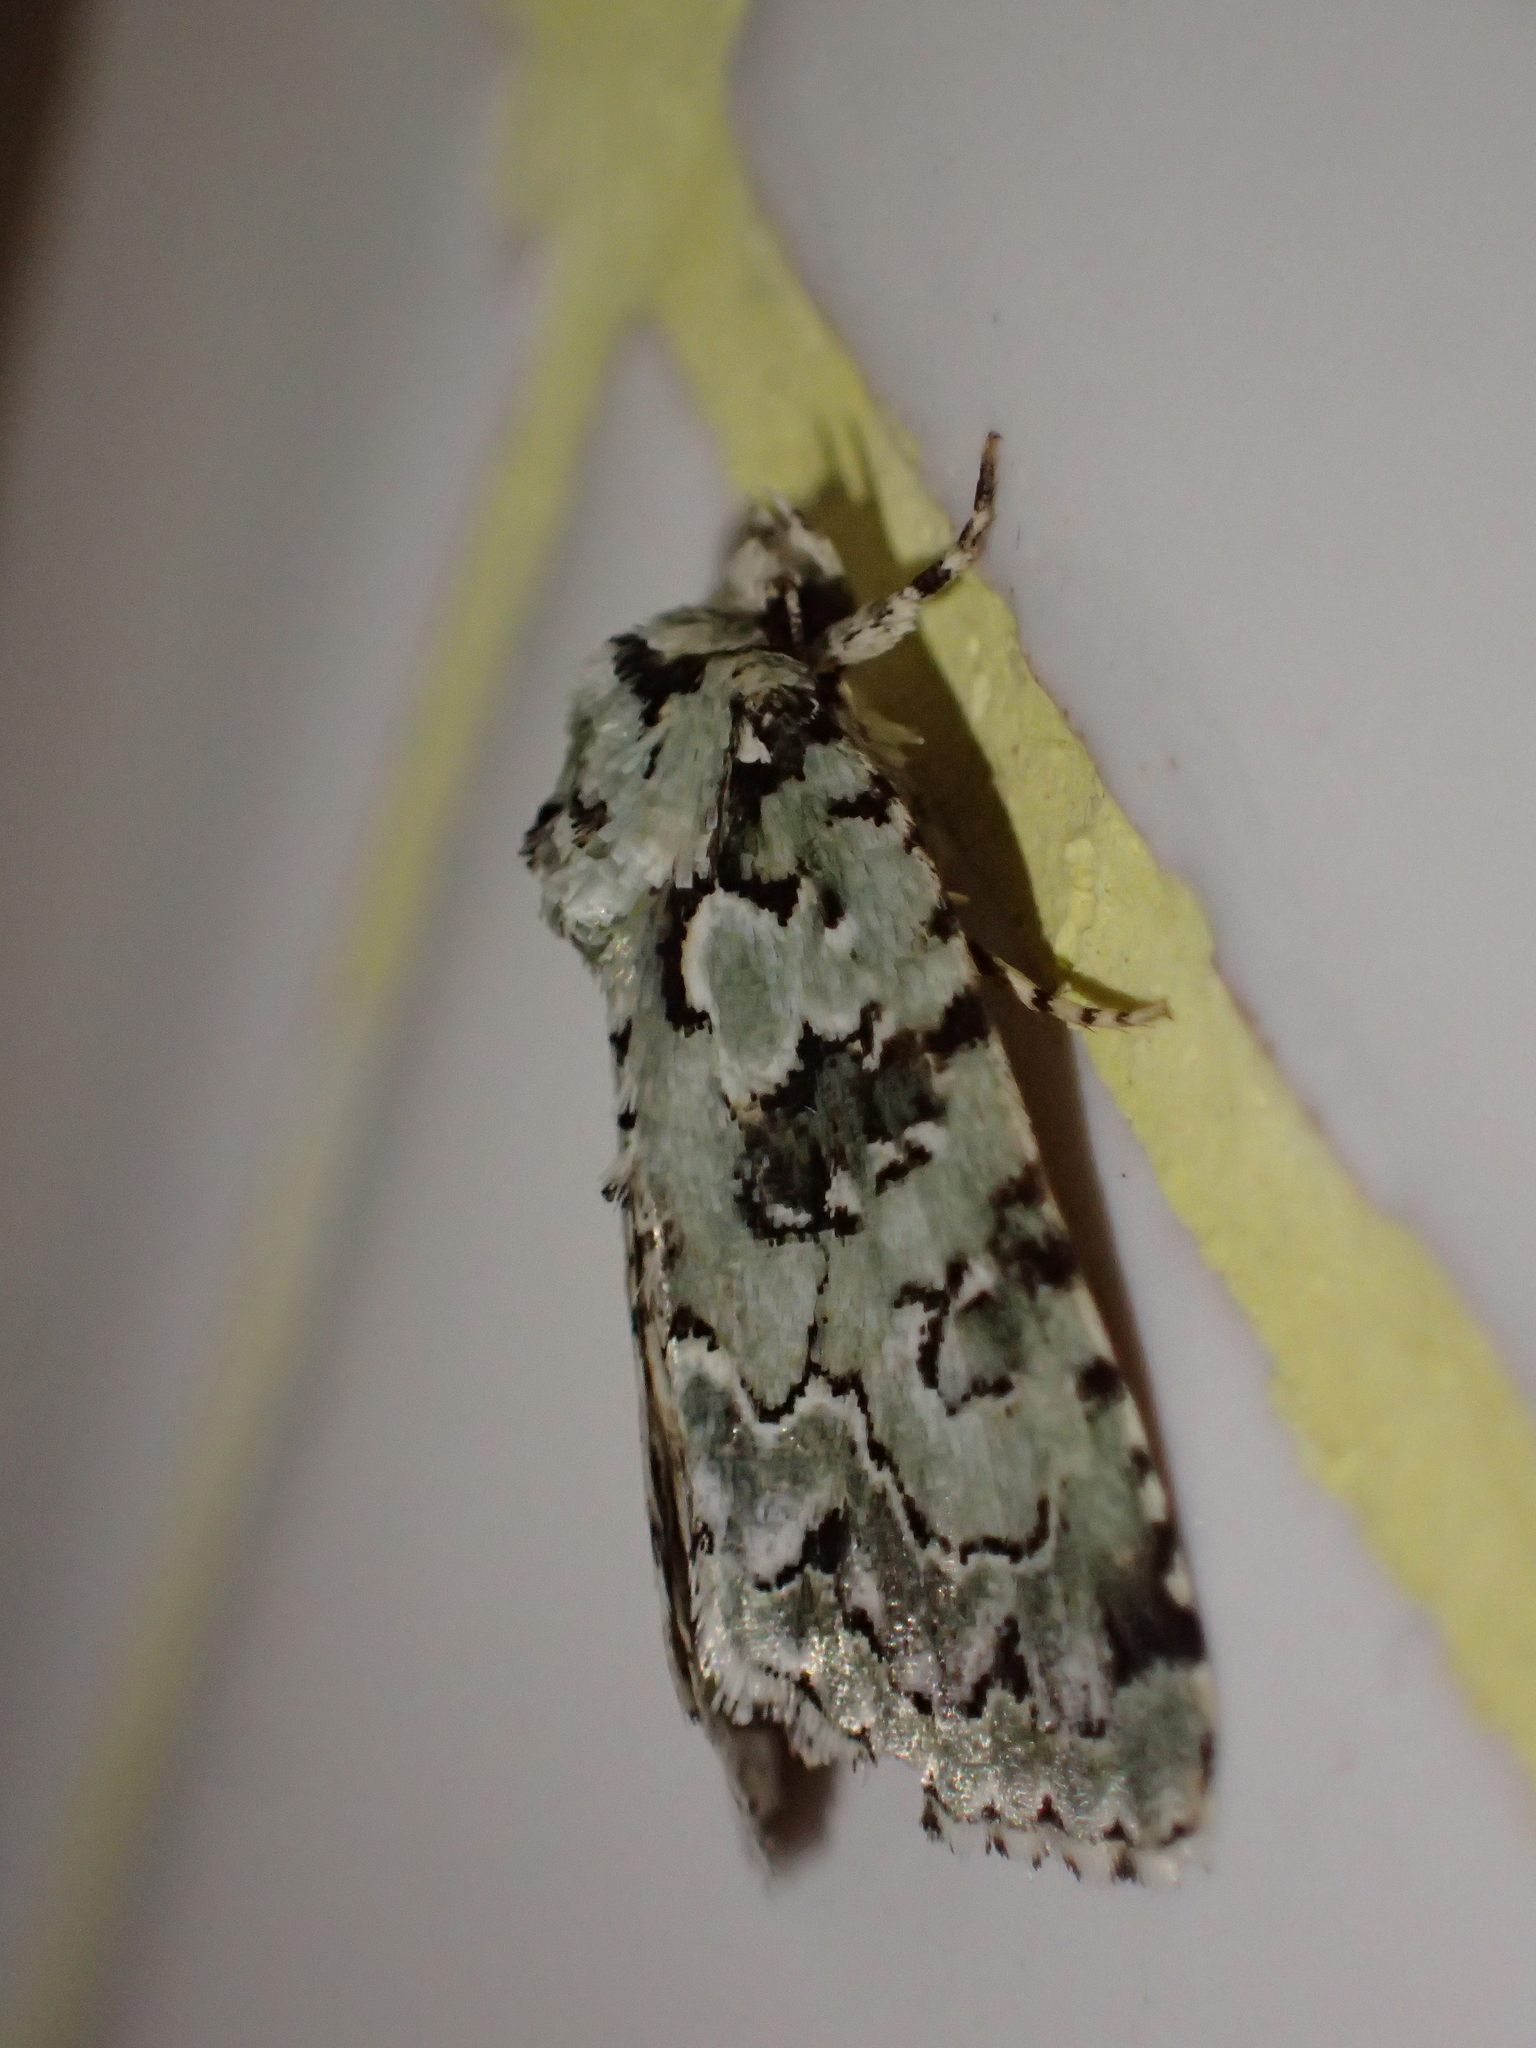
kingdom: Animalia
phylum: Arthropoda
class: Insecta
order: Lepidoptera
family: Noctuidae
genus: Nyctobrya
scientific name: Nyctobrya muralis
